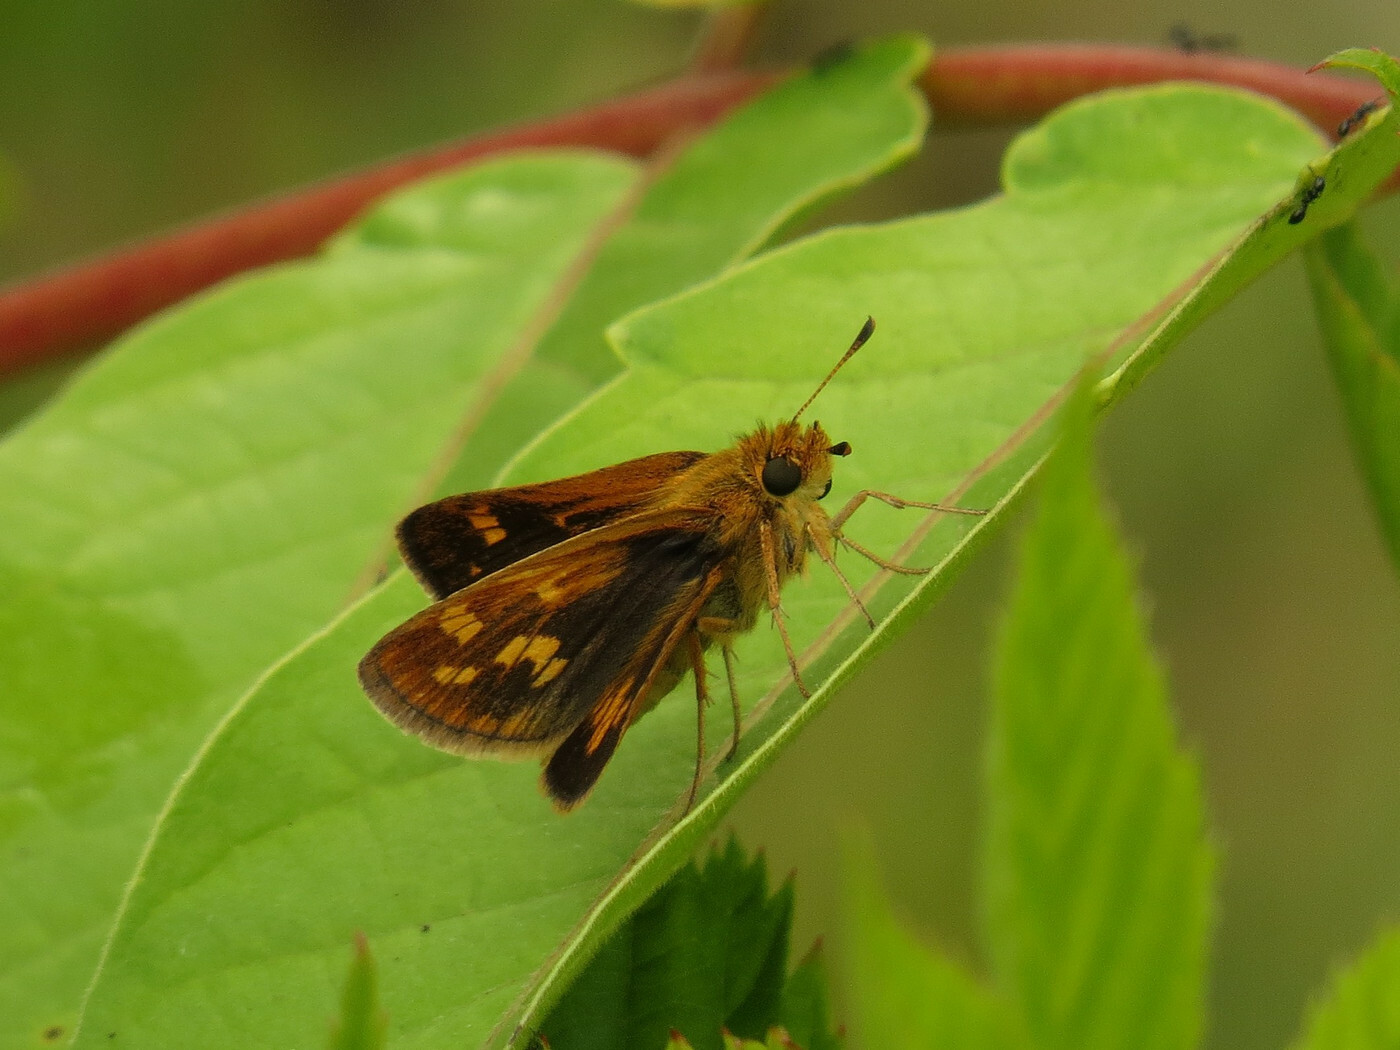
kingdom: Animalia
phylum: Arthropoda
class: Insecta
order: Lepidoptera
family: Hesperiidae
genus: Polites
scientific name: Polites coras
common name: Peck's skipper
